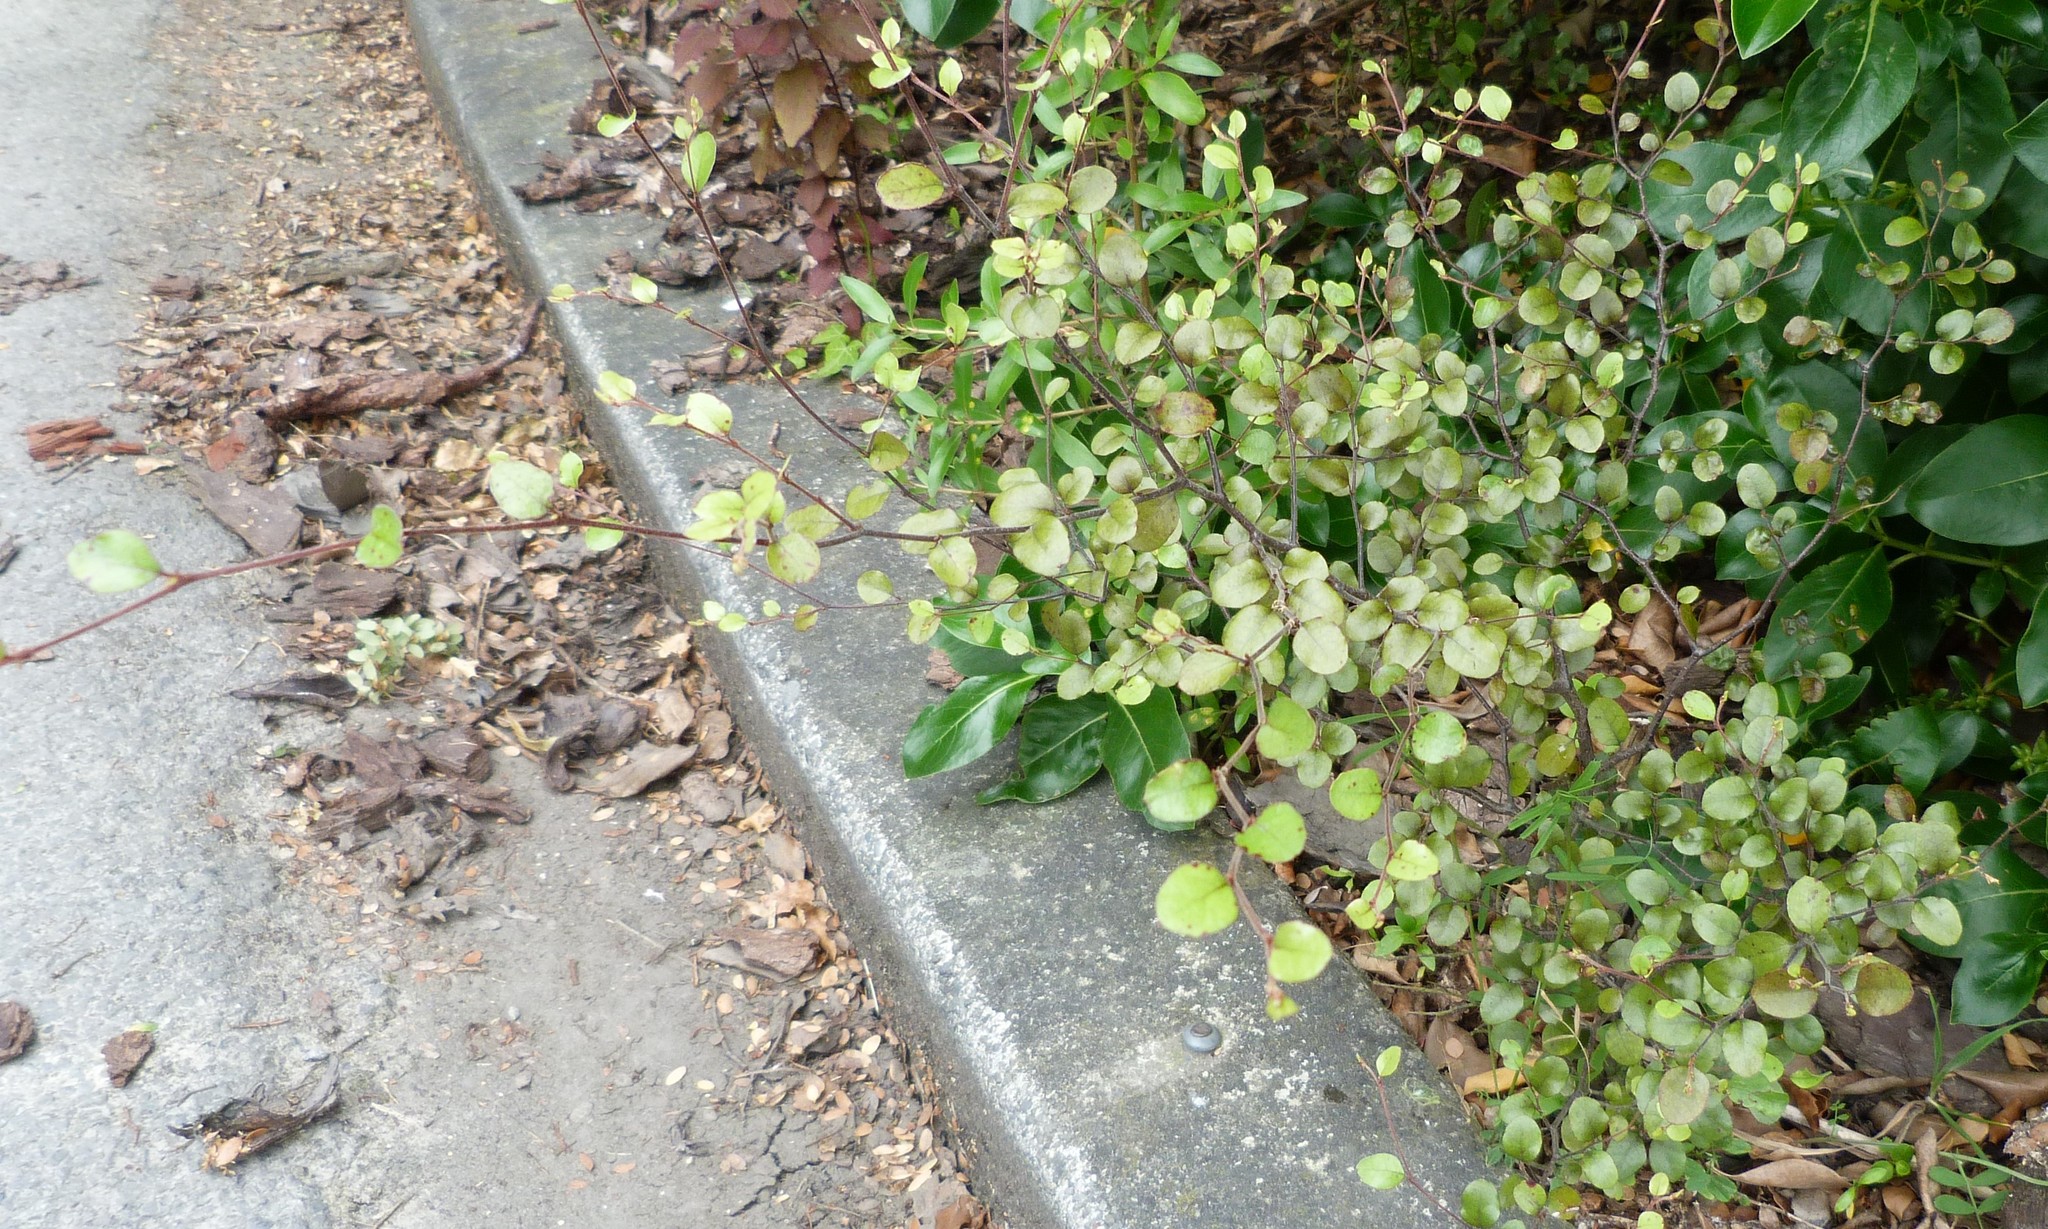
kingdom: Plantae
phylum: Tracheophyta
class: Magnoliopsida
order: Fagales
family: Nothofagaceae
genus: Nothofagus
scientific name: Nothofagus solfusca
